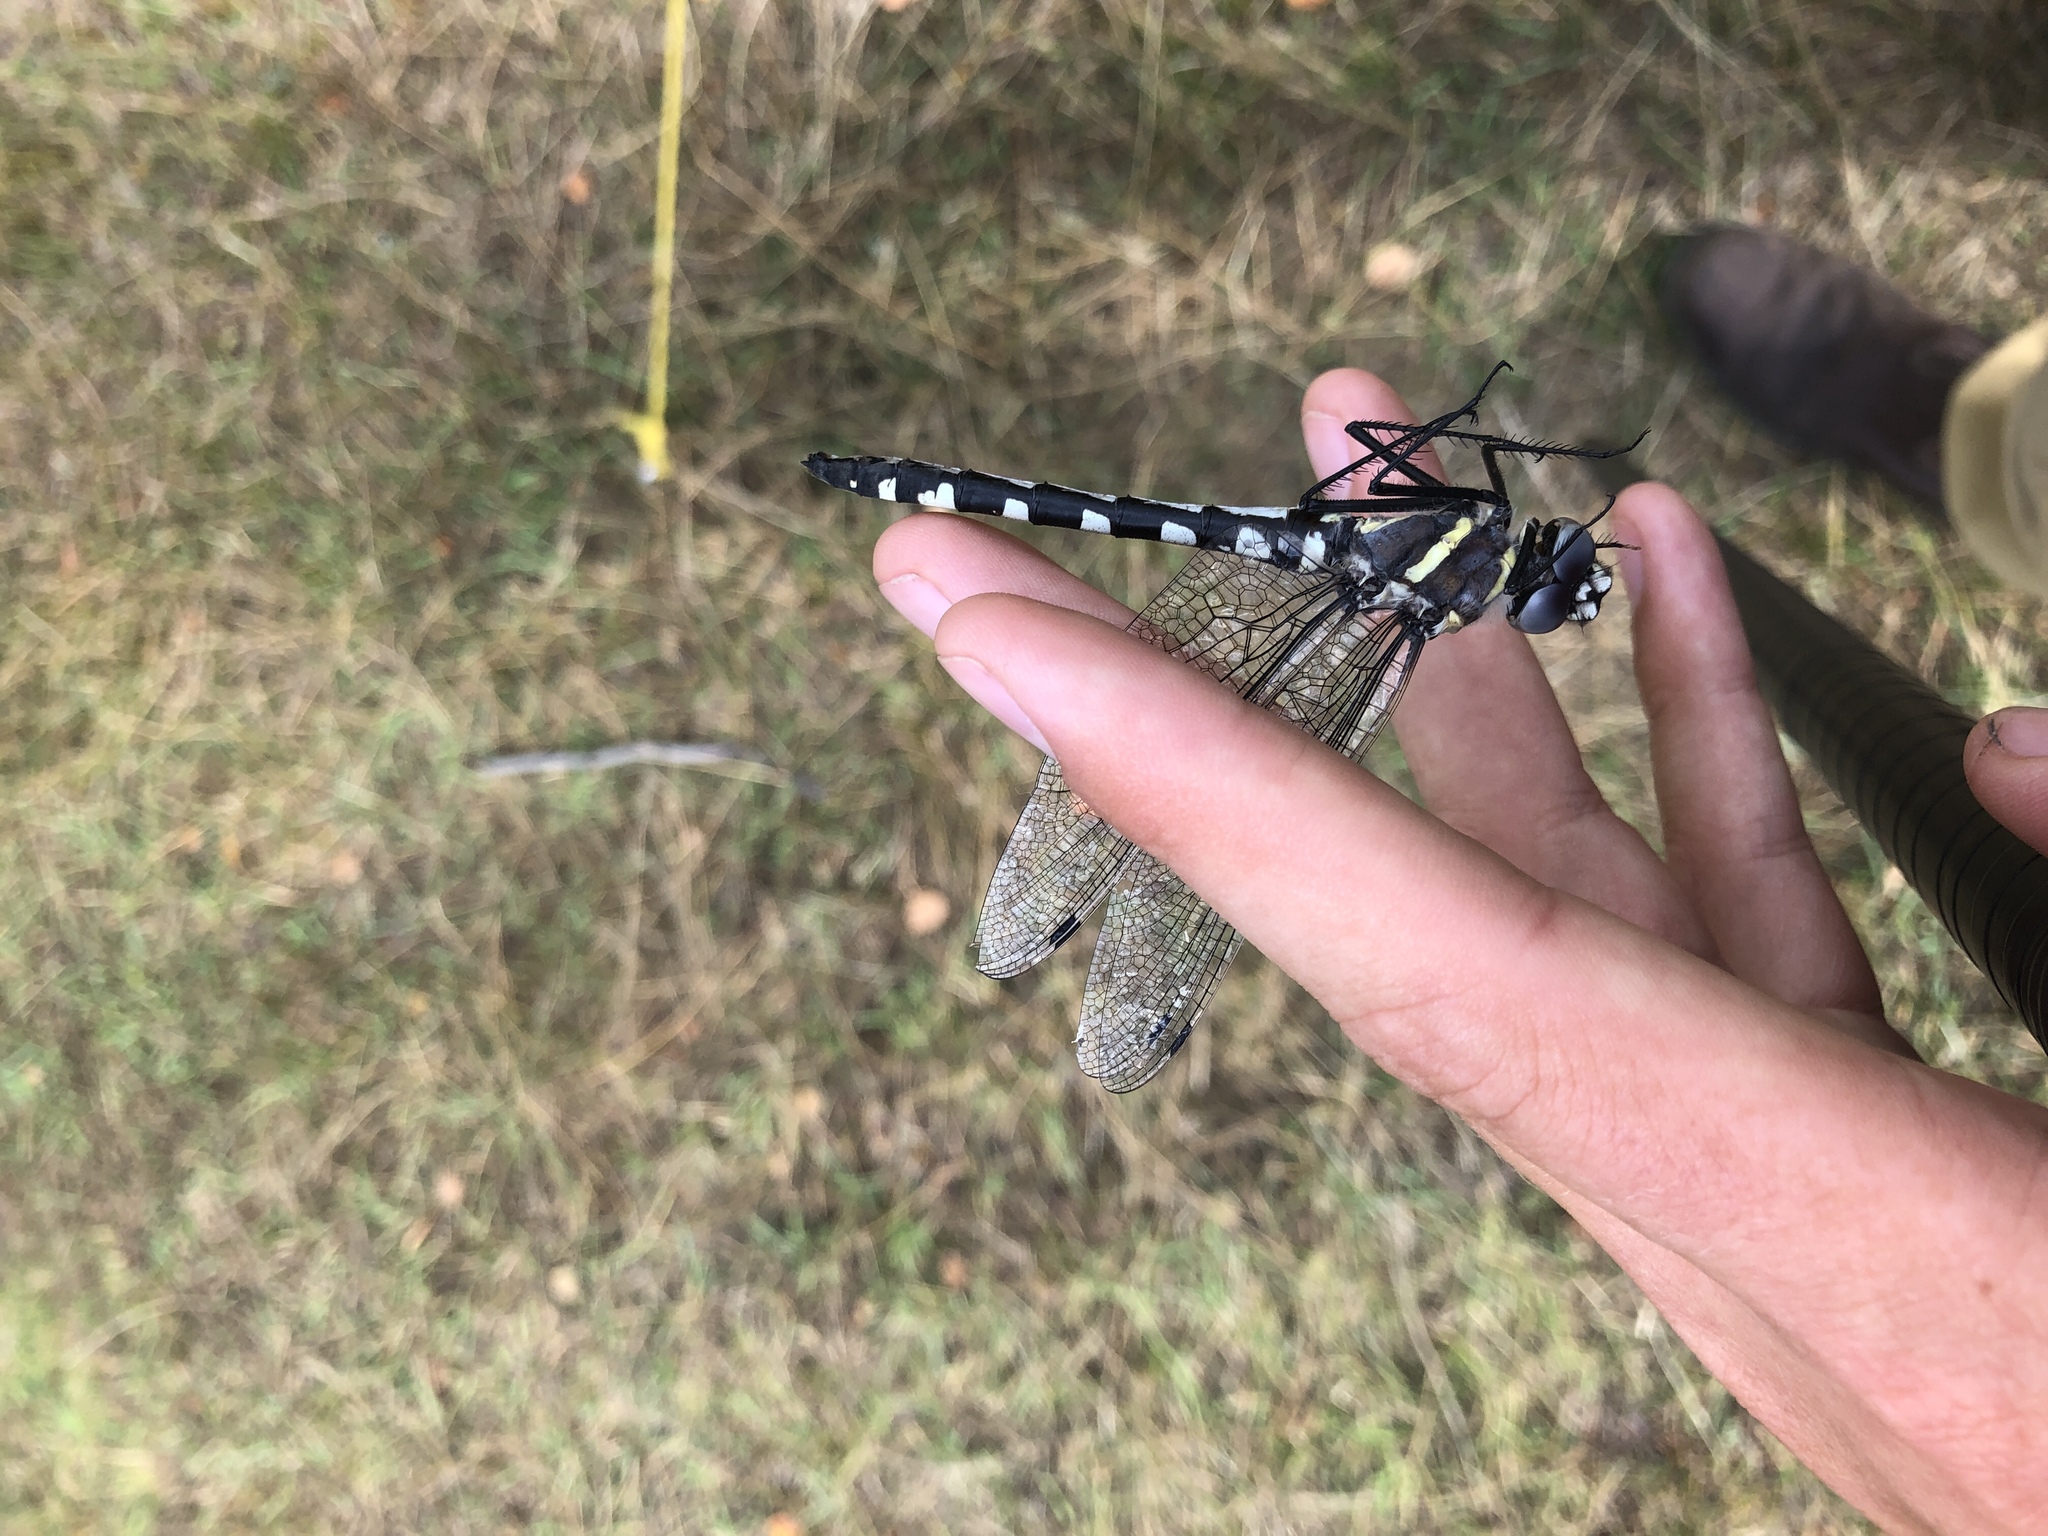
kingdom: Animalia
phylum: Arthropoda
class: Insecta
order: Odonata
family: Macromiidae
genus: Macromia
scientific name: Macromia magnifica
